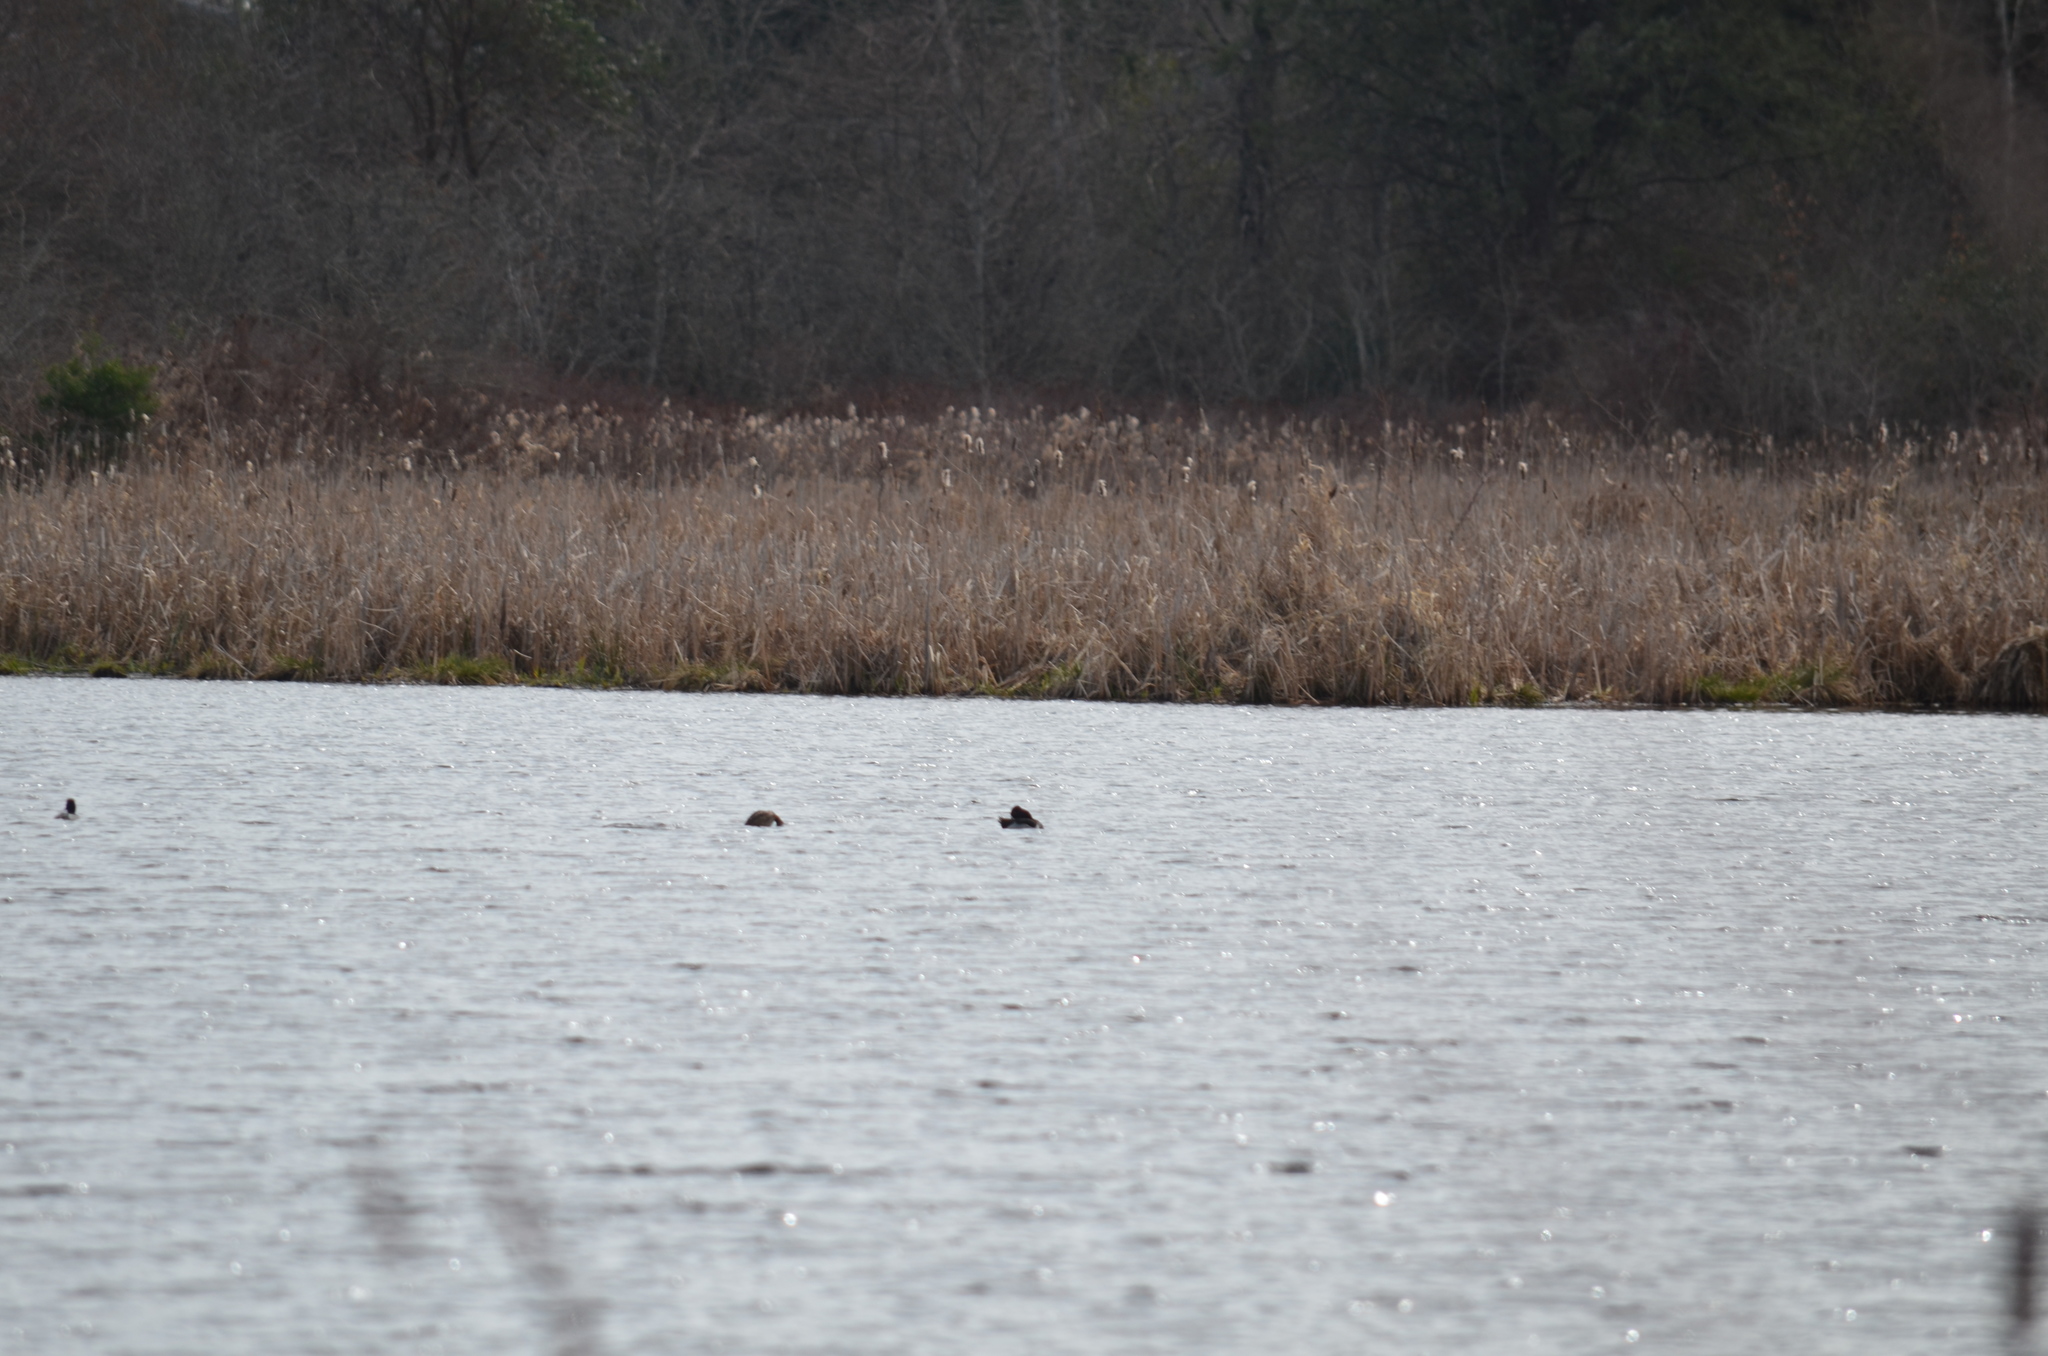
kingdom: Animalia
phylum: Chordata
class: Aves
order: Anseriformes
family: Anatidae
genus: Branta
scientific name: Branta canadensis
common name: Canada goose
